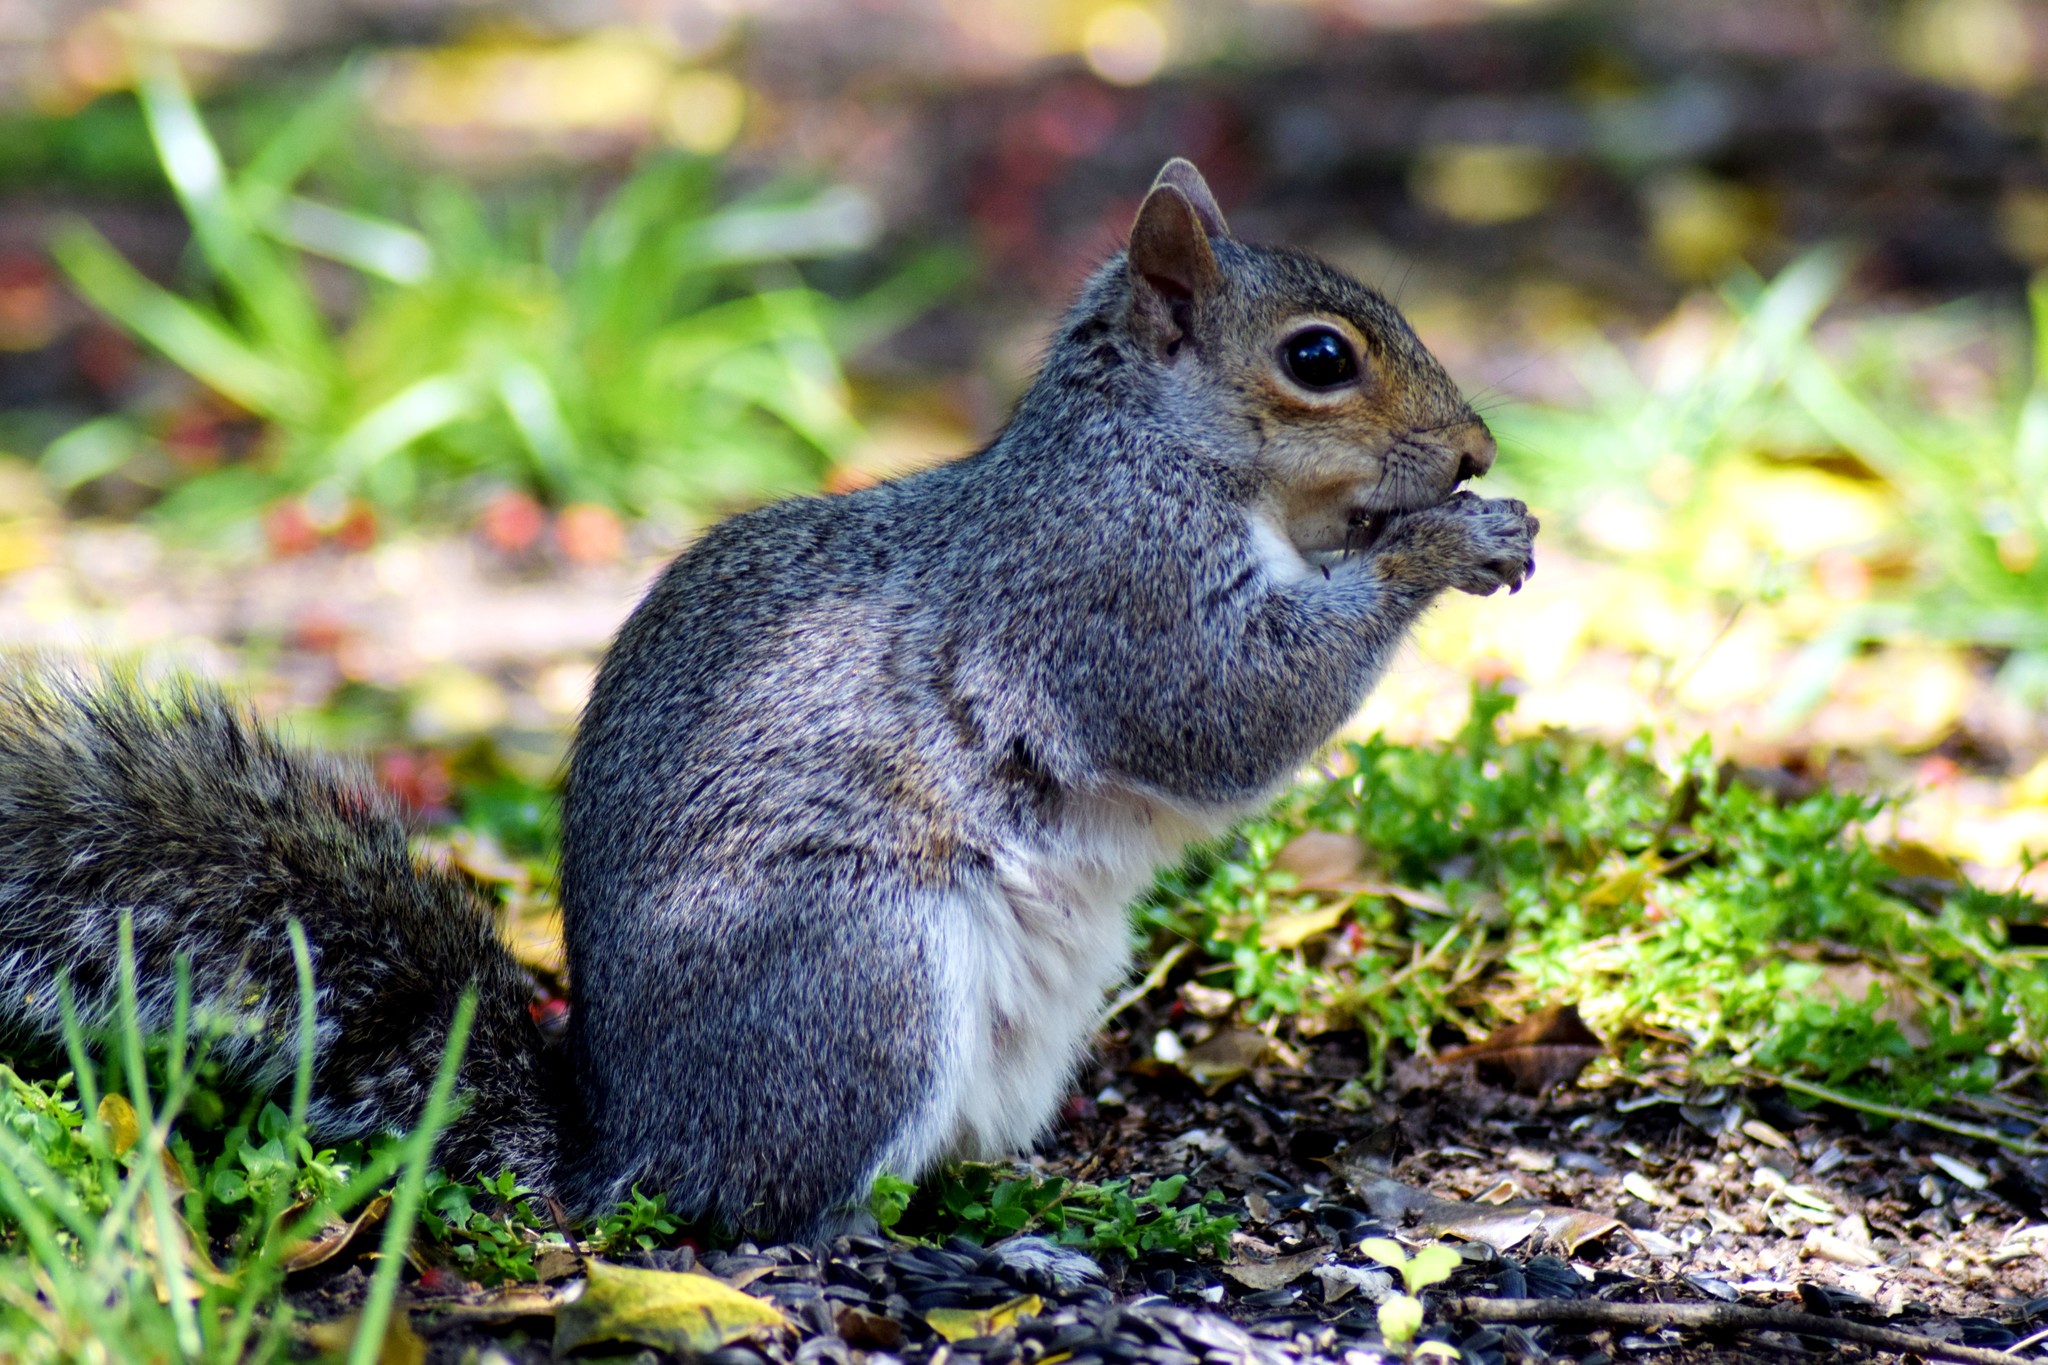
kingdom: Animalia
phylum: Chordata
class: Mammalia
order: Rodentia
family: Sciuridae
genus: Sciurus
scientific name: Sciurus carolinensis
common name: Eastern gray squirrel
